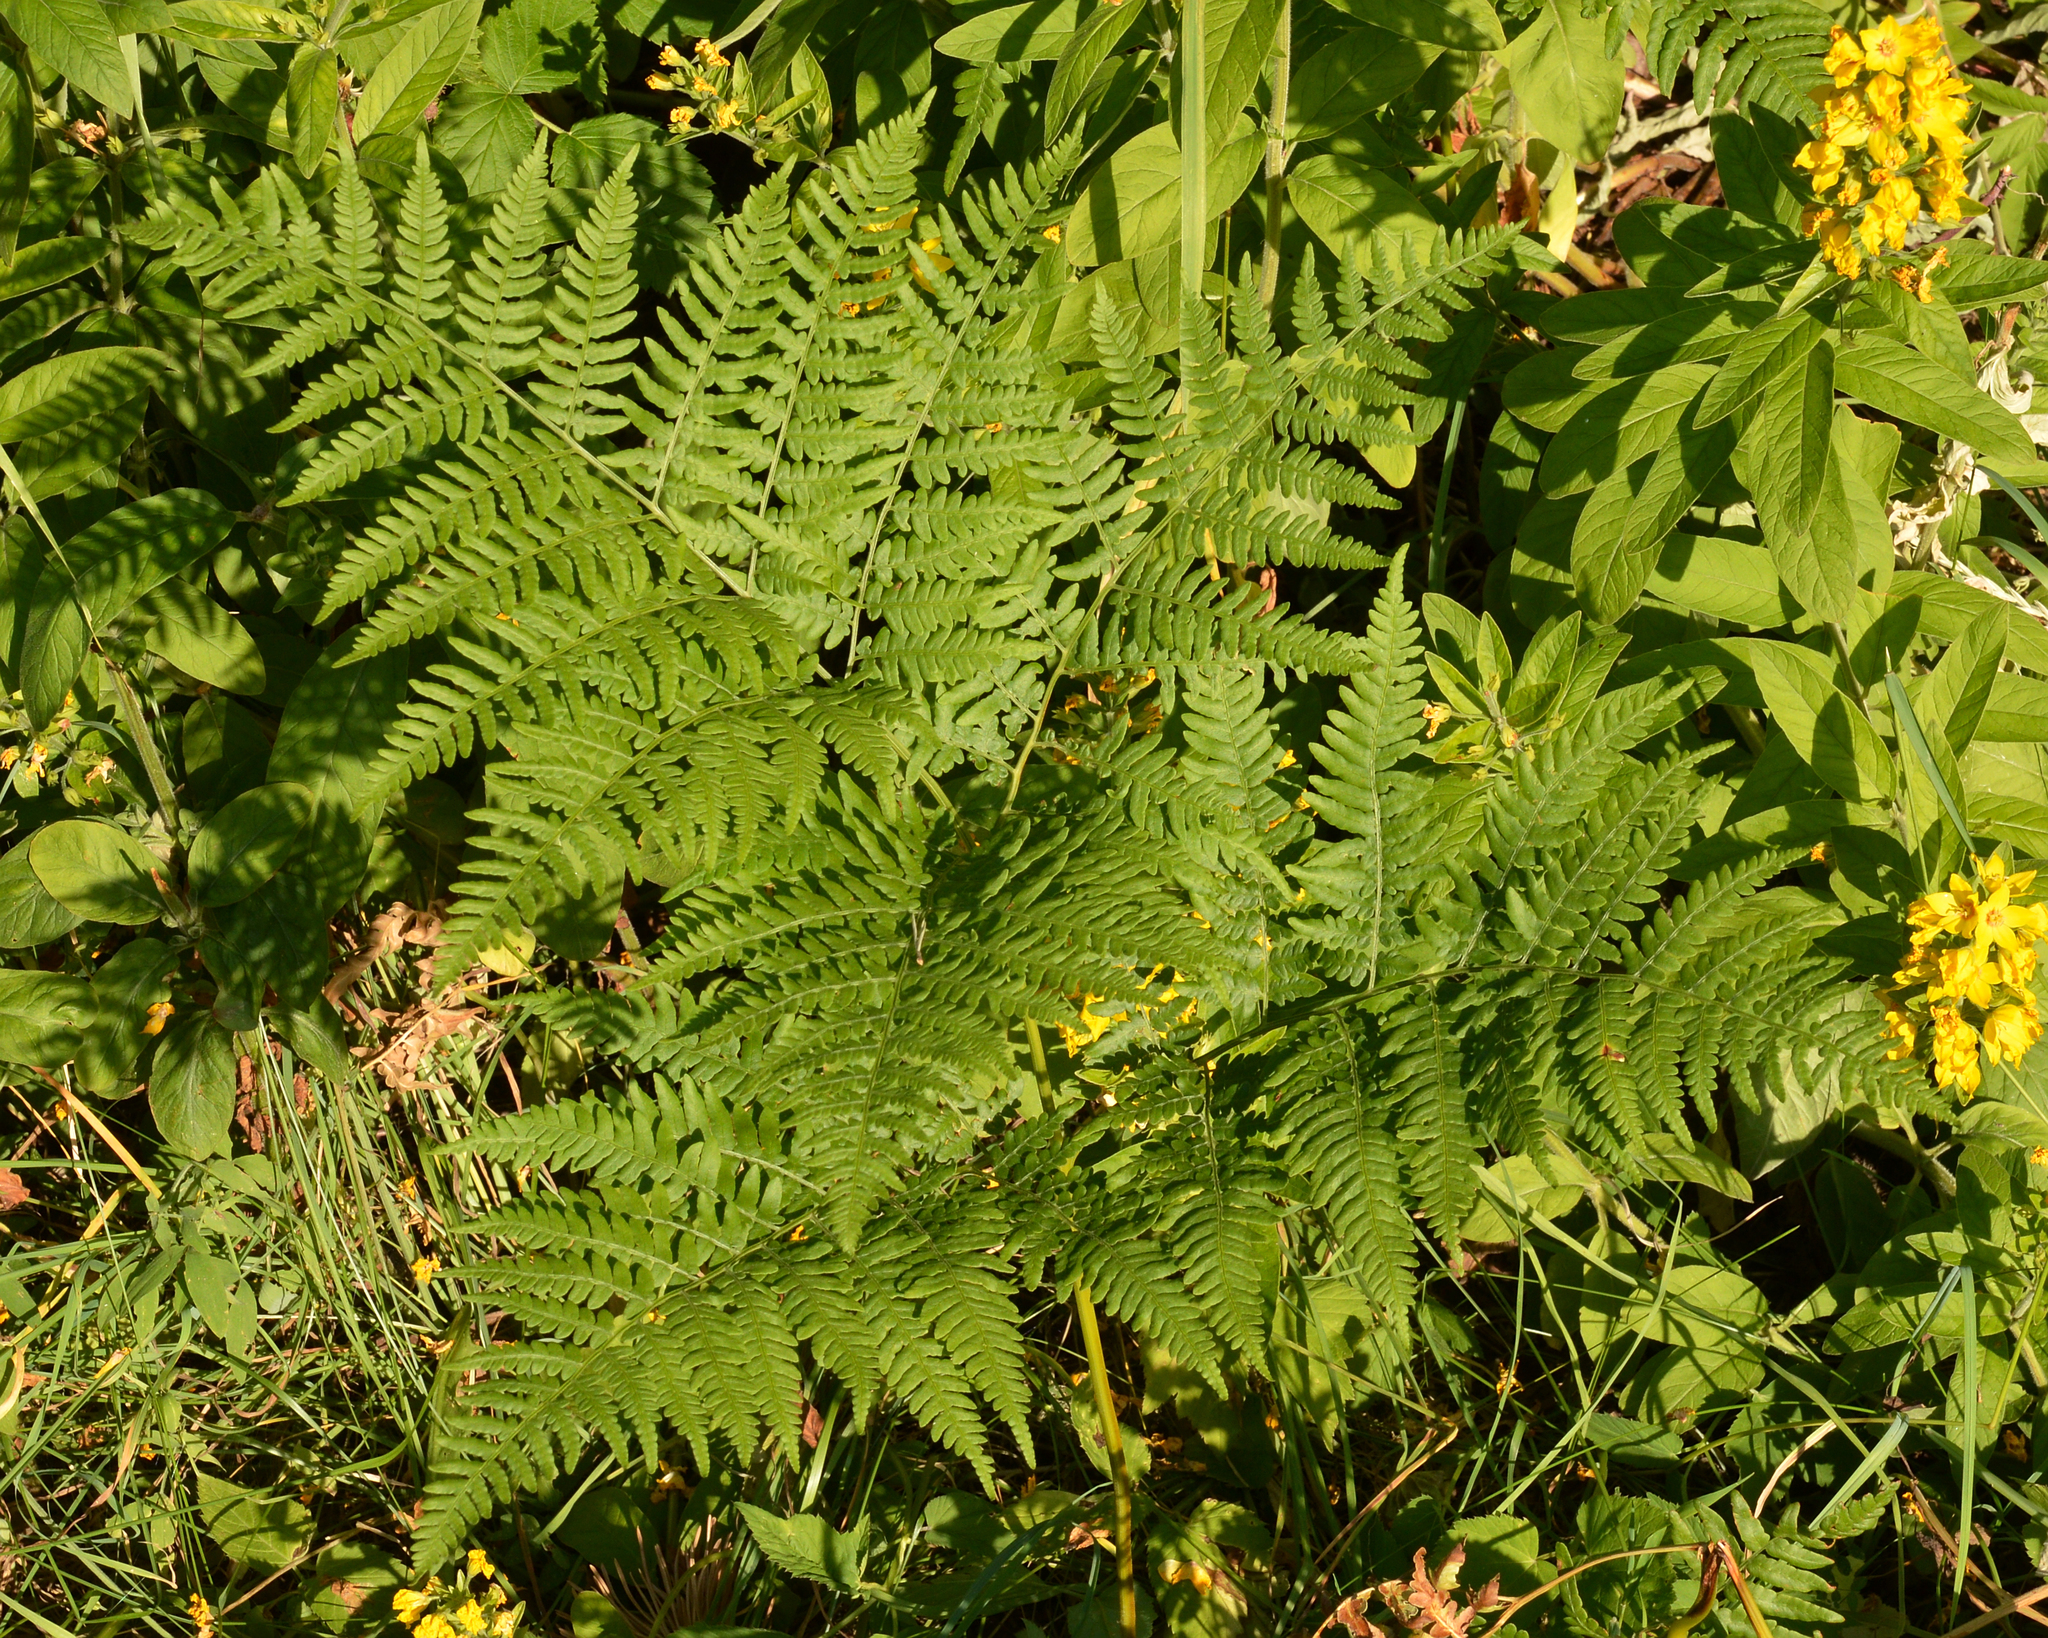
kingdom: Plantae
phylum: Tracheophyta
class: Polypodiopsida
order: Polypodiales
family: Dennstaedtiaceae
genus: Pteridium
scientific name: Pteridium aquilinum
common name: Bracken
